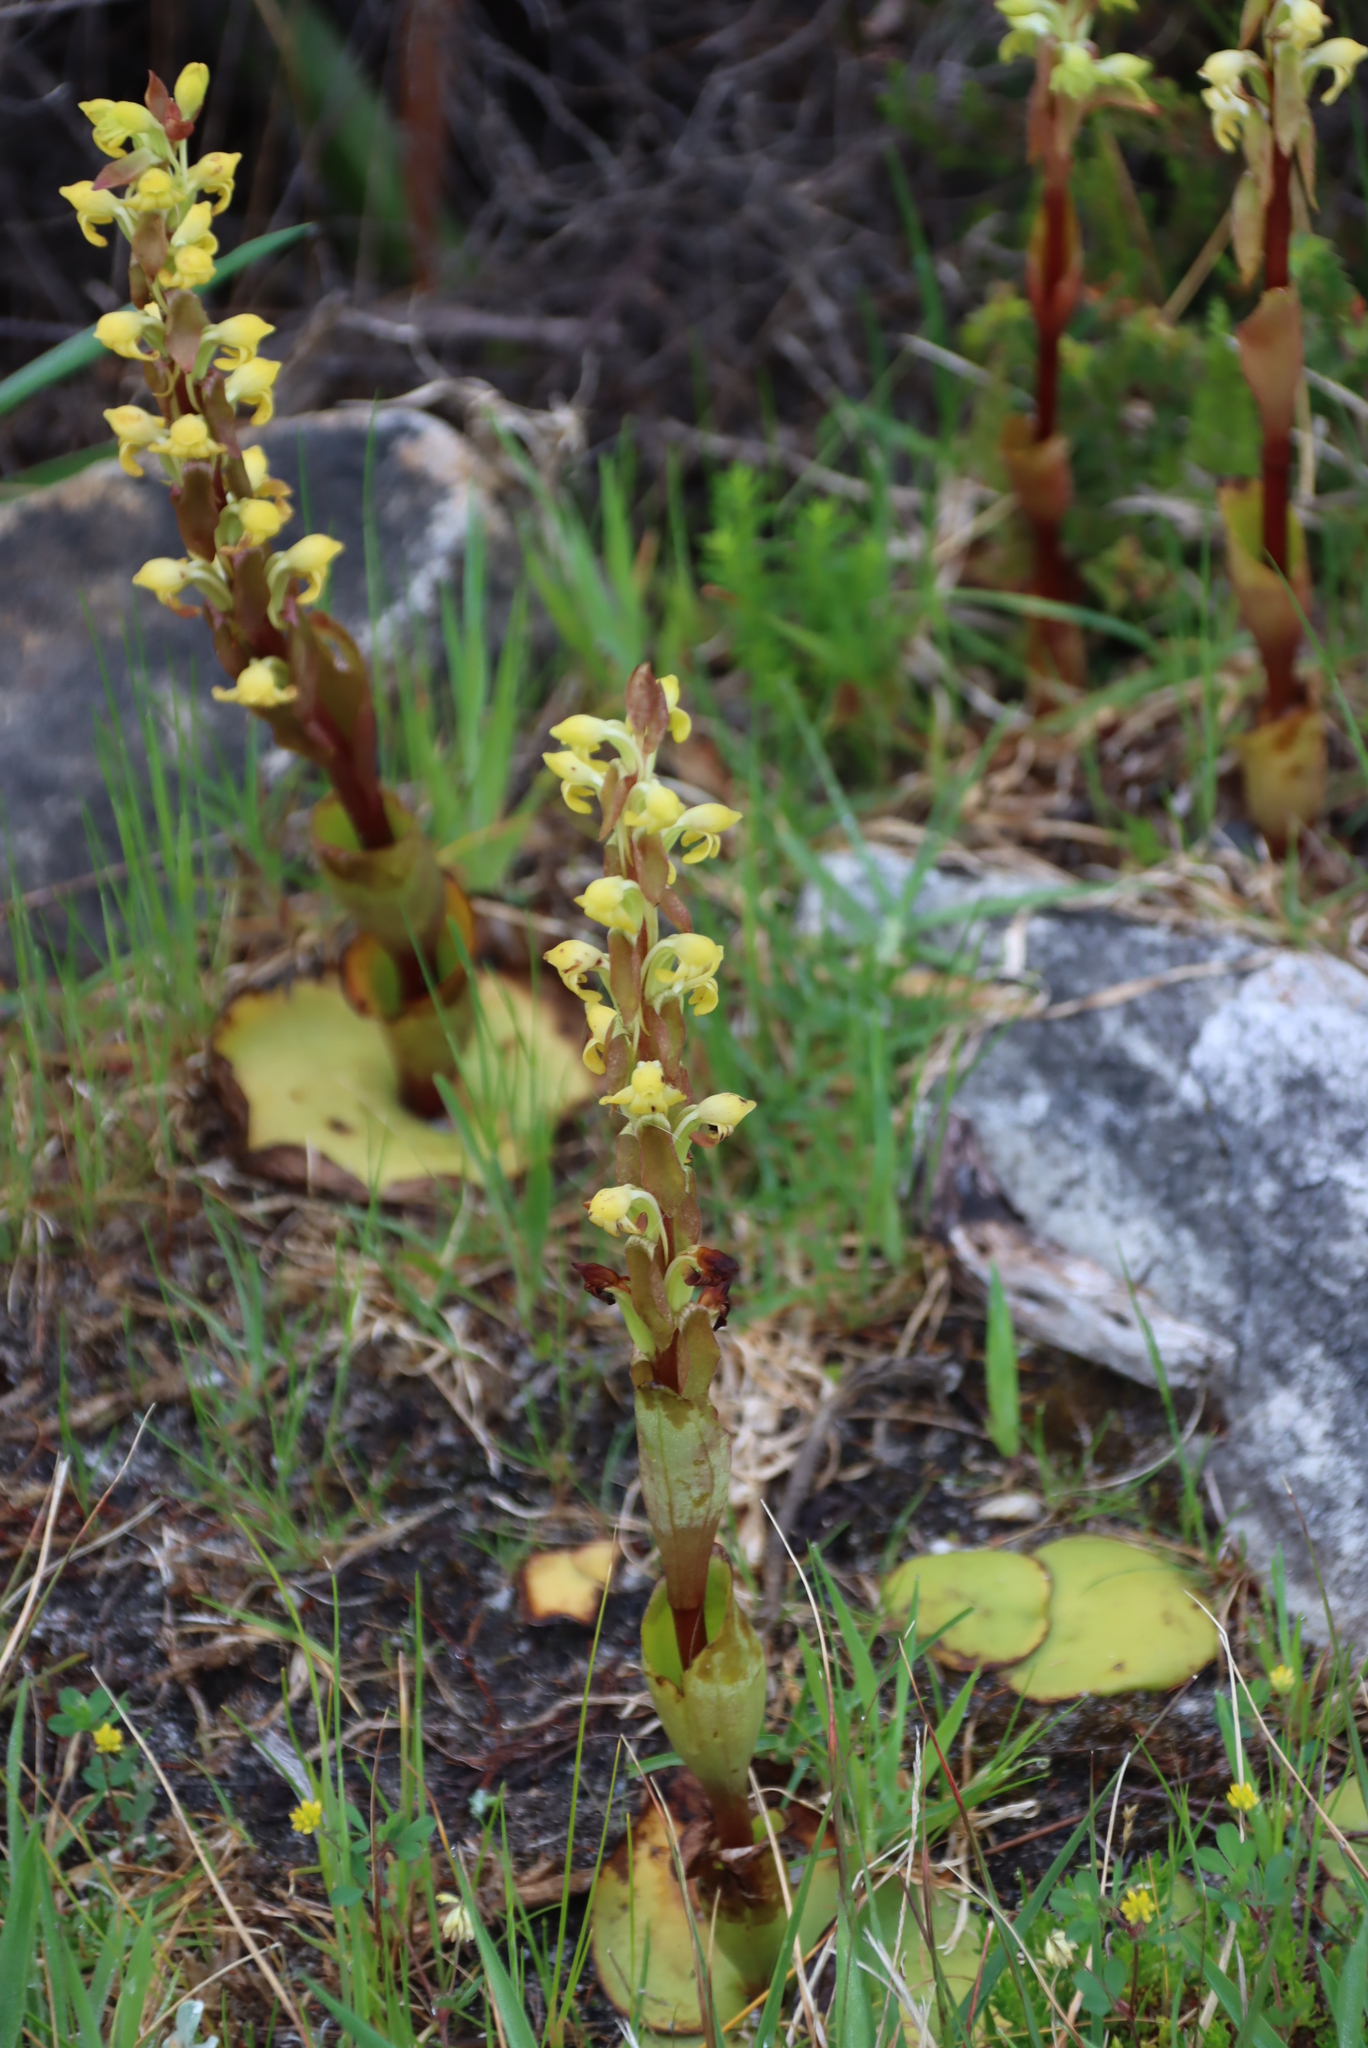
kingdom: Plantae
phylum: Tracheophyta
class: Liliopsida
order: Asparagales
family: Orchidaceae
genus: Satyrium
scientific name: Satyrium bicorne
